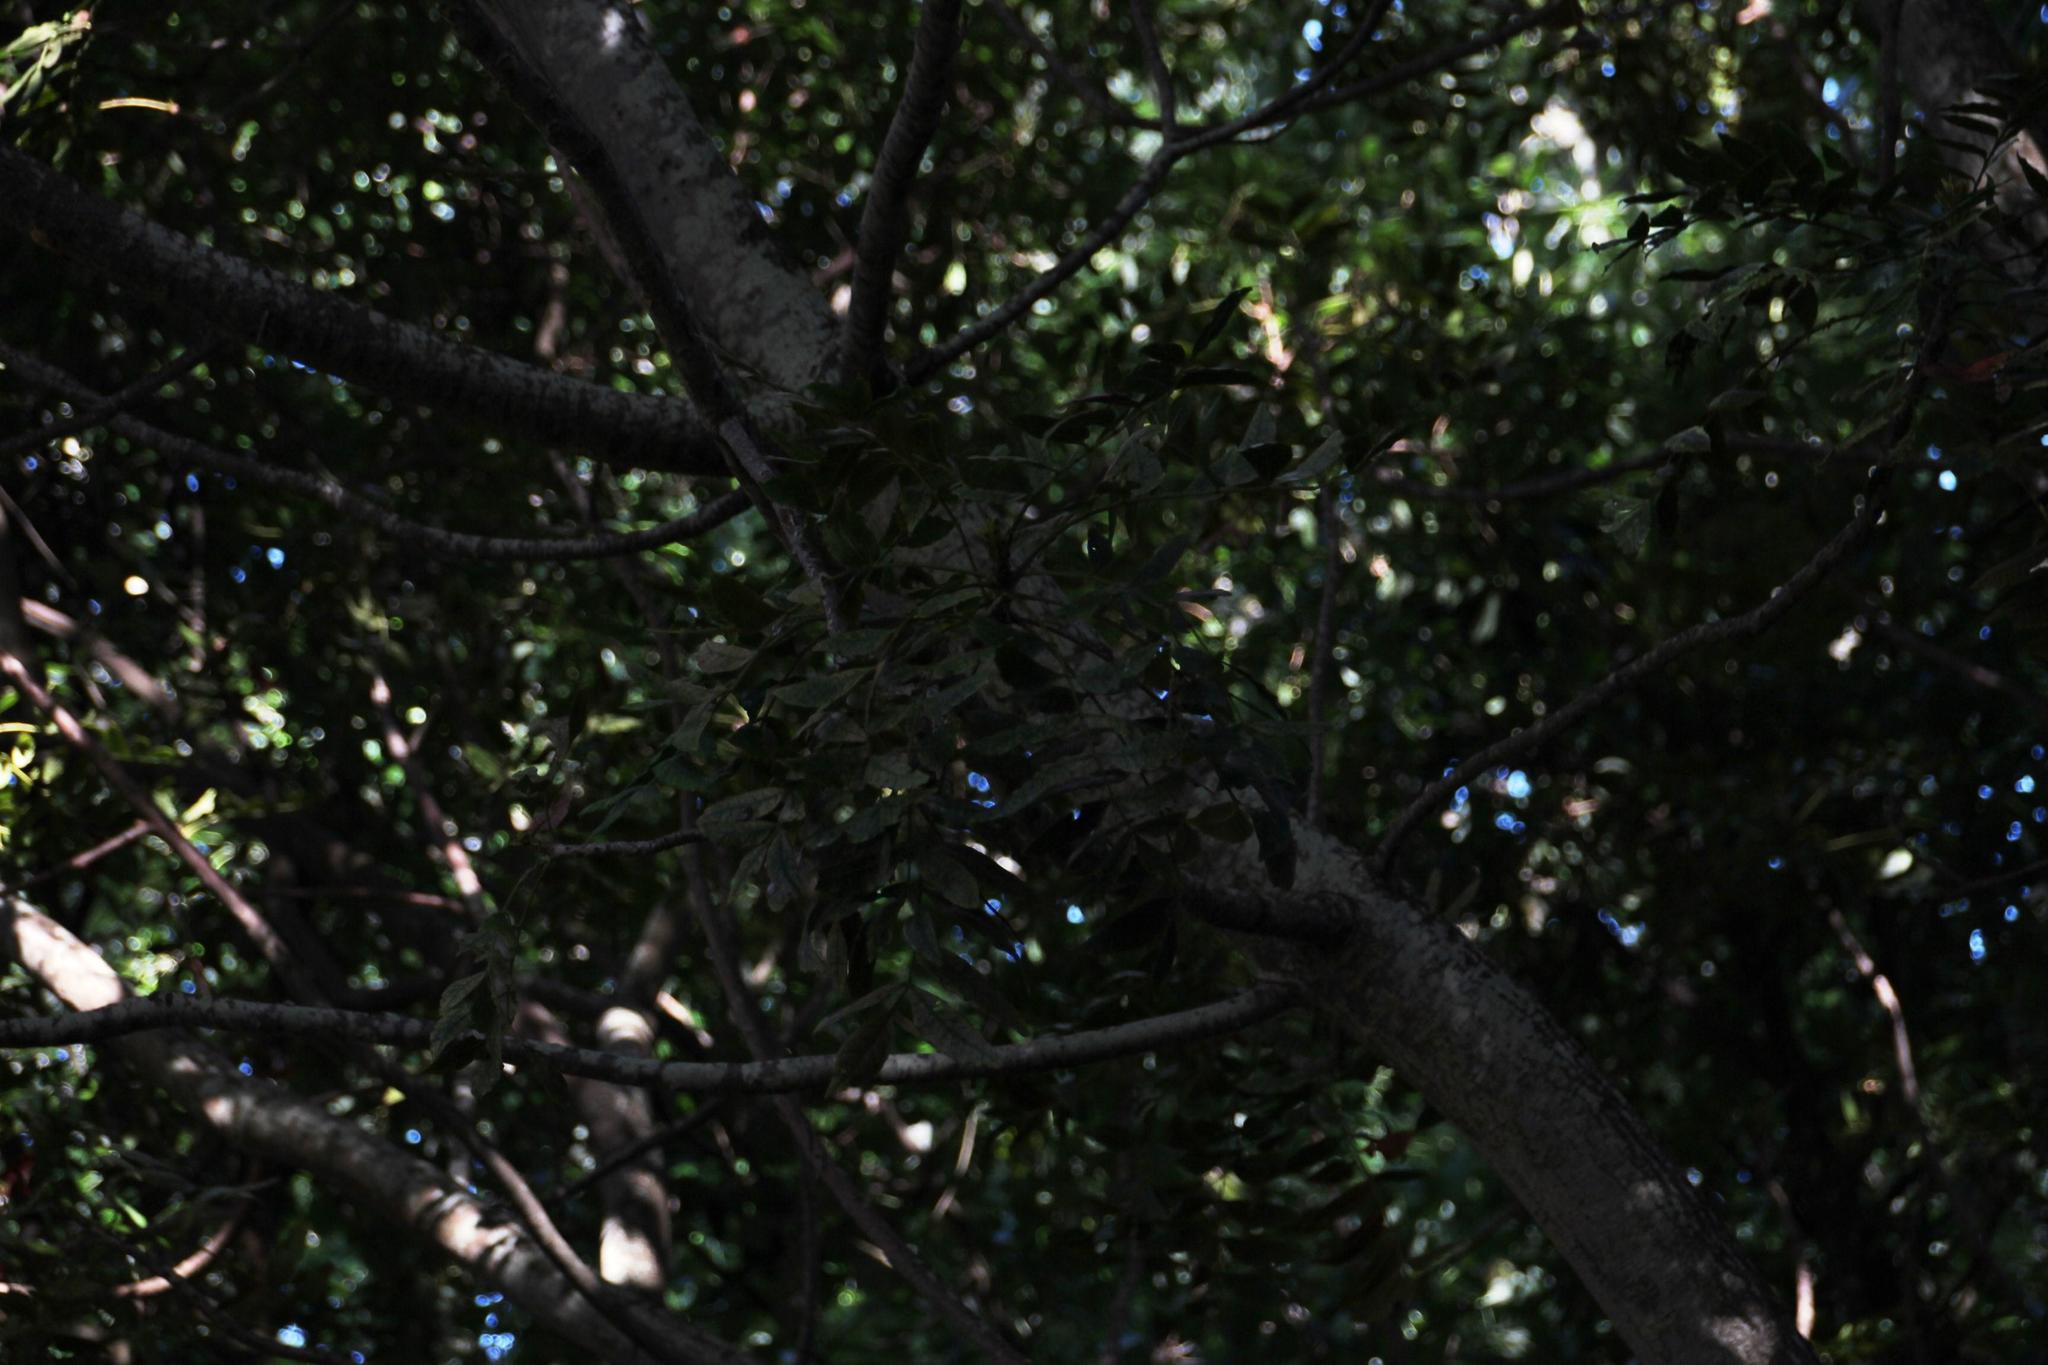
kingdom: Plantae
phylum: Tracheophyta
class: Magnoliopsida
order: Sapindales
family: Anacardiaceae
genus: Harpephyllum
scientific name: Harpephyllum caffrum
